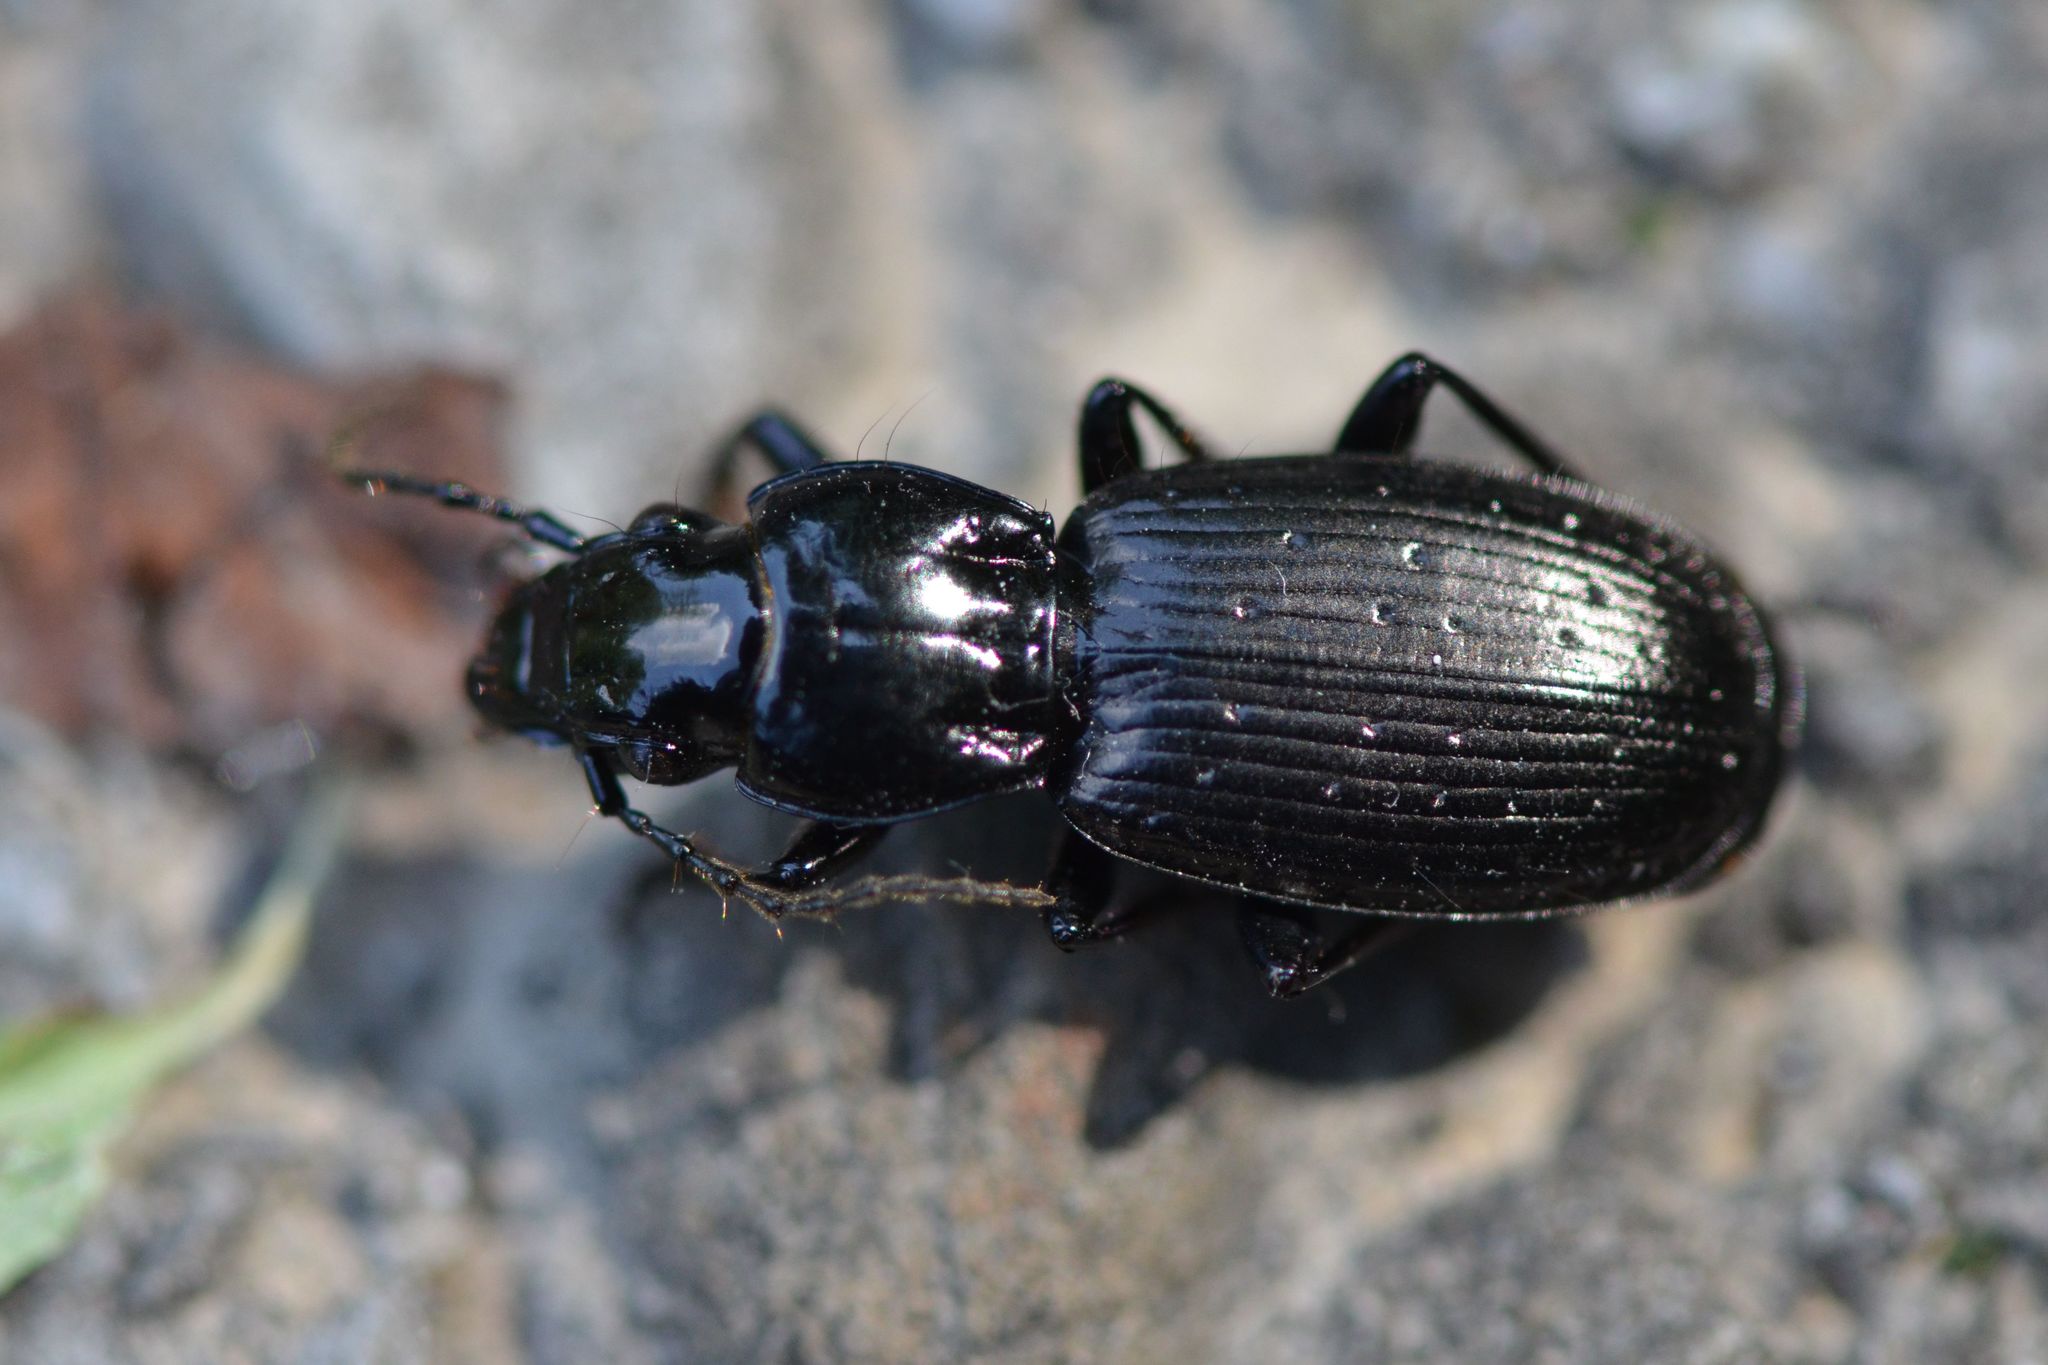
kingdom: Animalia
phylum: Arthropoda
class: Insecta
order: Coleoptera
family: Carabidae
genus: Pterostichus
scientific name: Pterostichus selmanni
